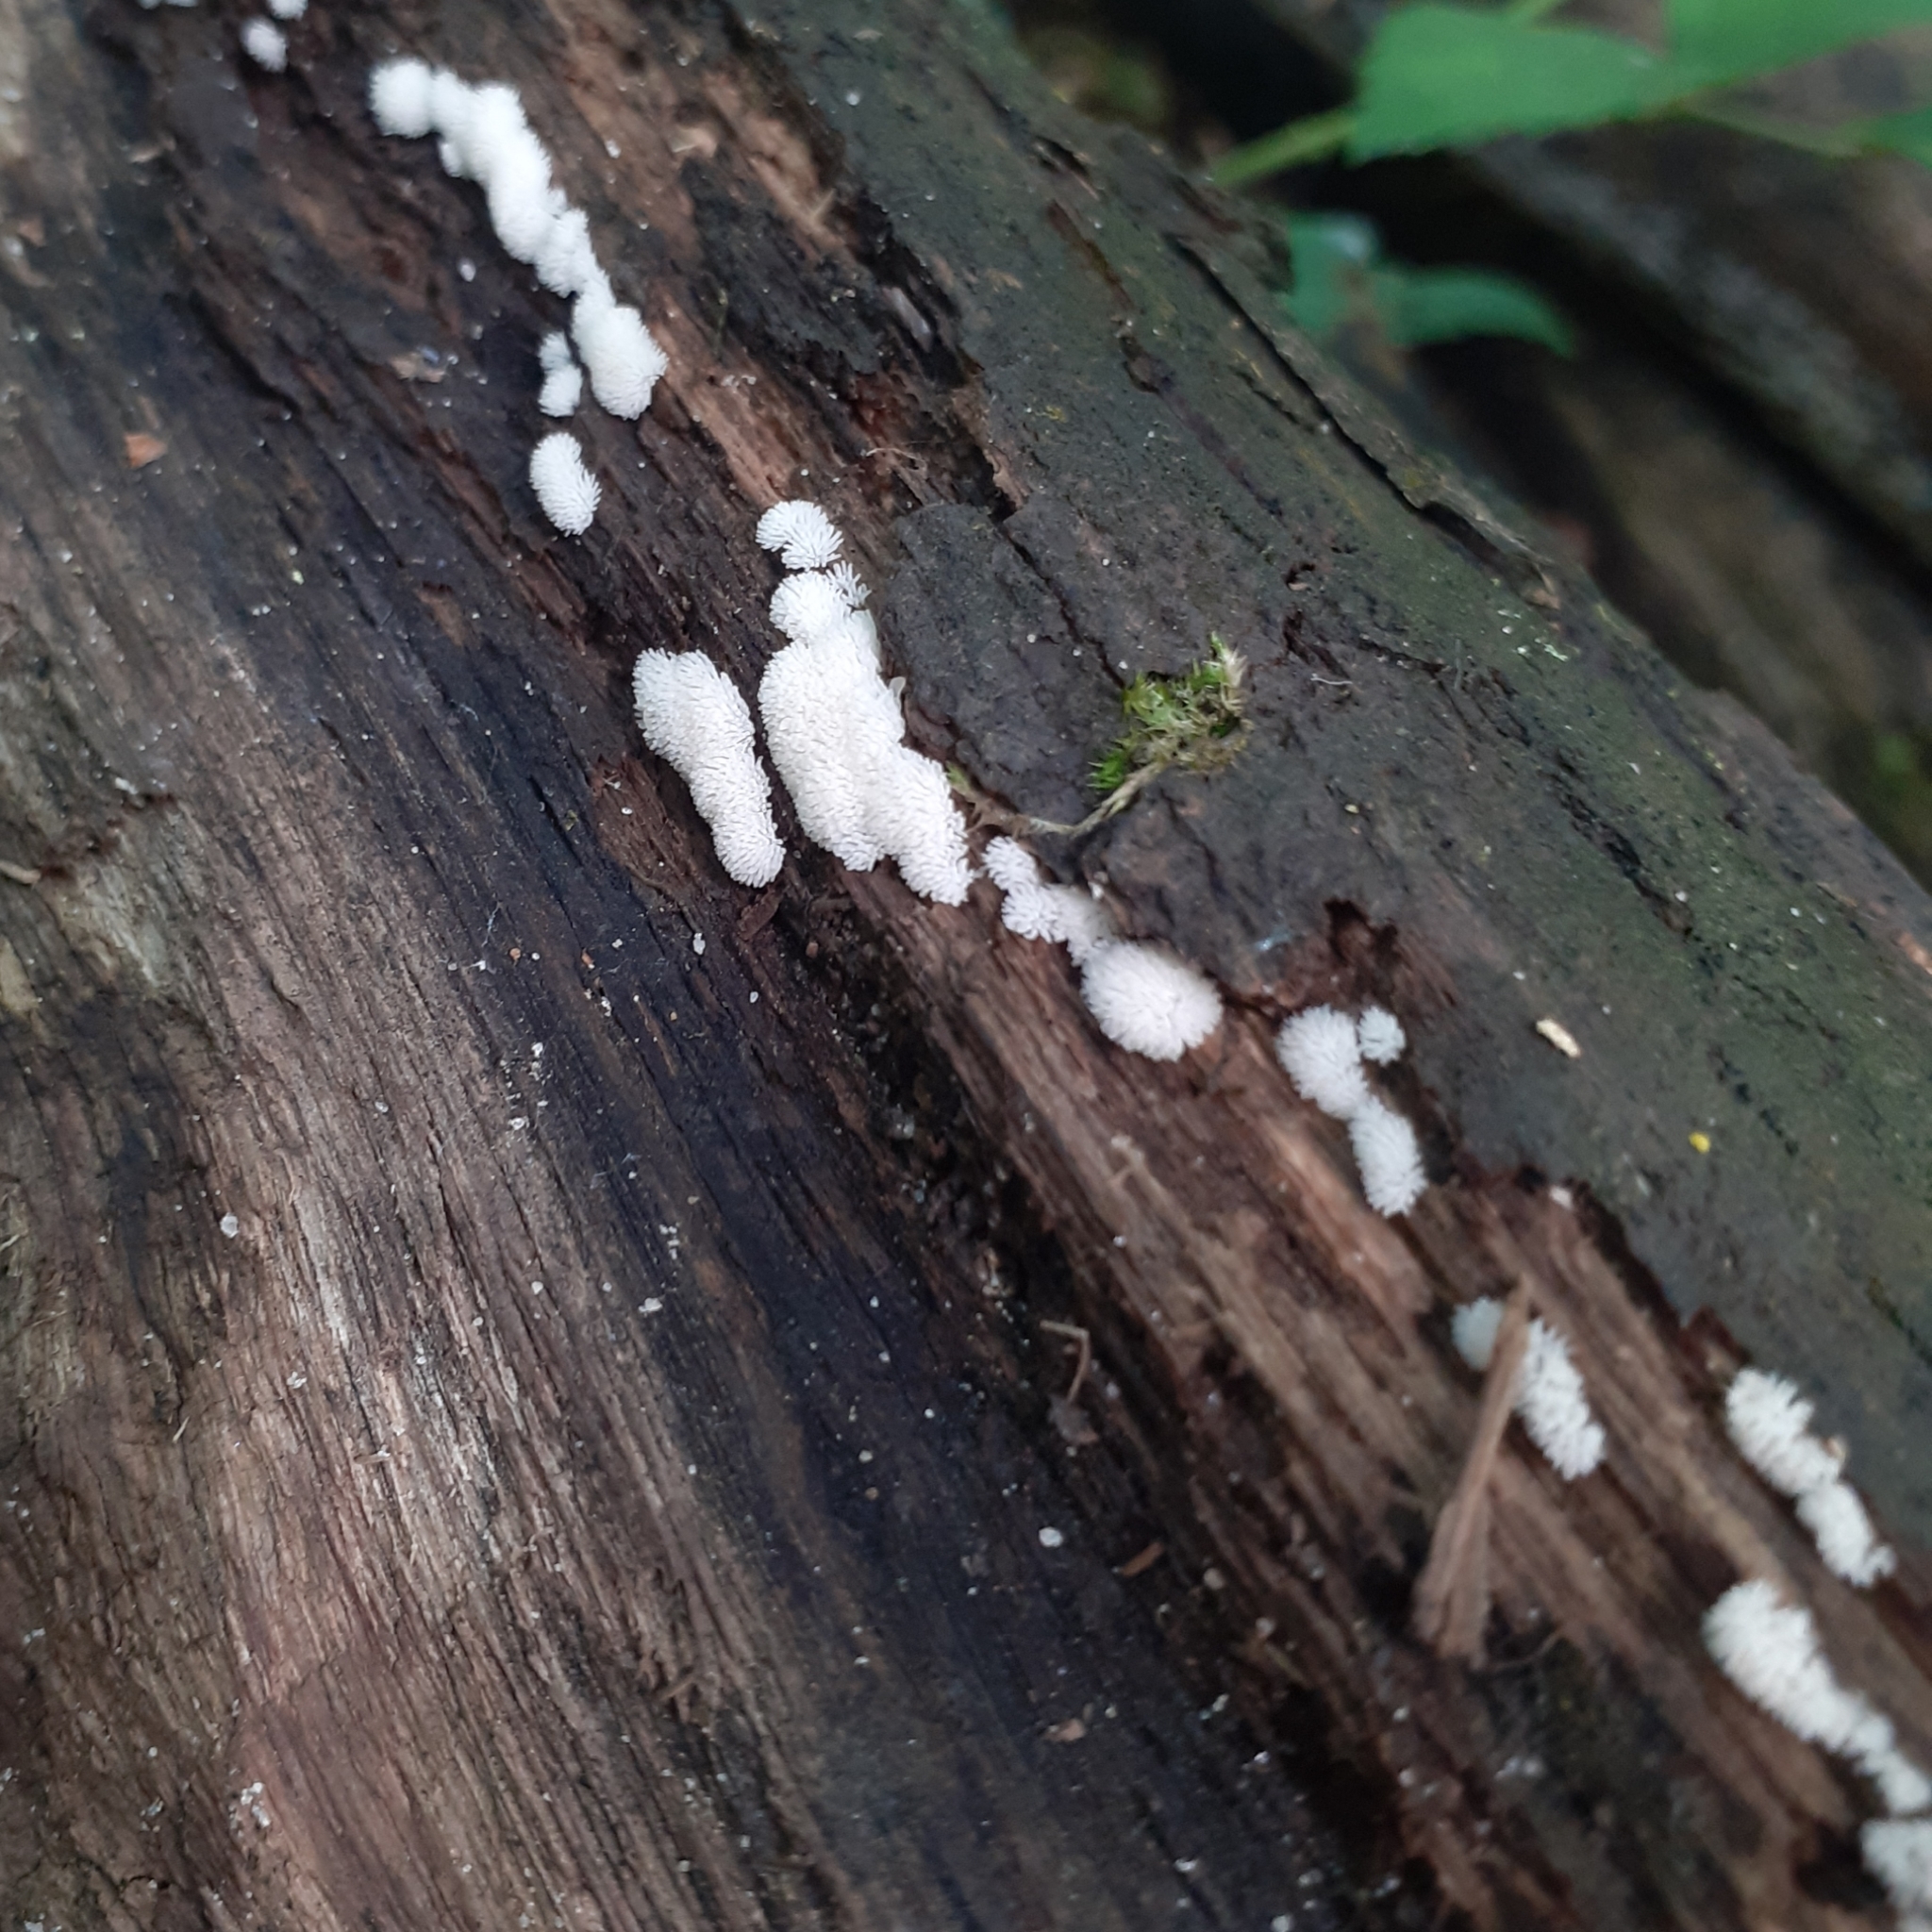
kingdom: Protozoa
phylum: Mycetozoa
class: Protosteliomycetes
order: Ceratiomyxales
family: Ceratiomyxaceae
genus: Ceratiomyxa
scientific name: Ceratiomyxa fruticulosa
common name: Honeycomb coral slime mold
